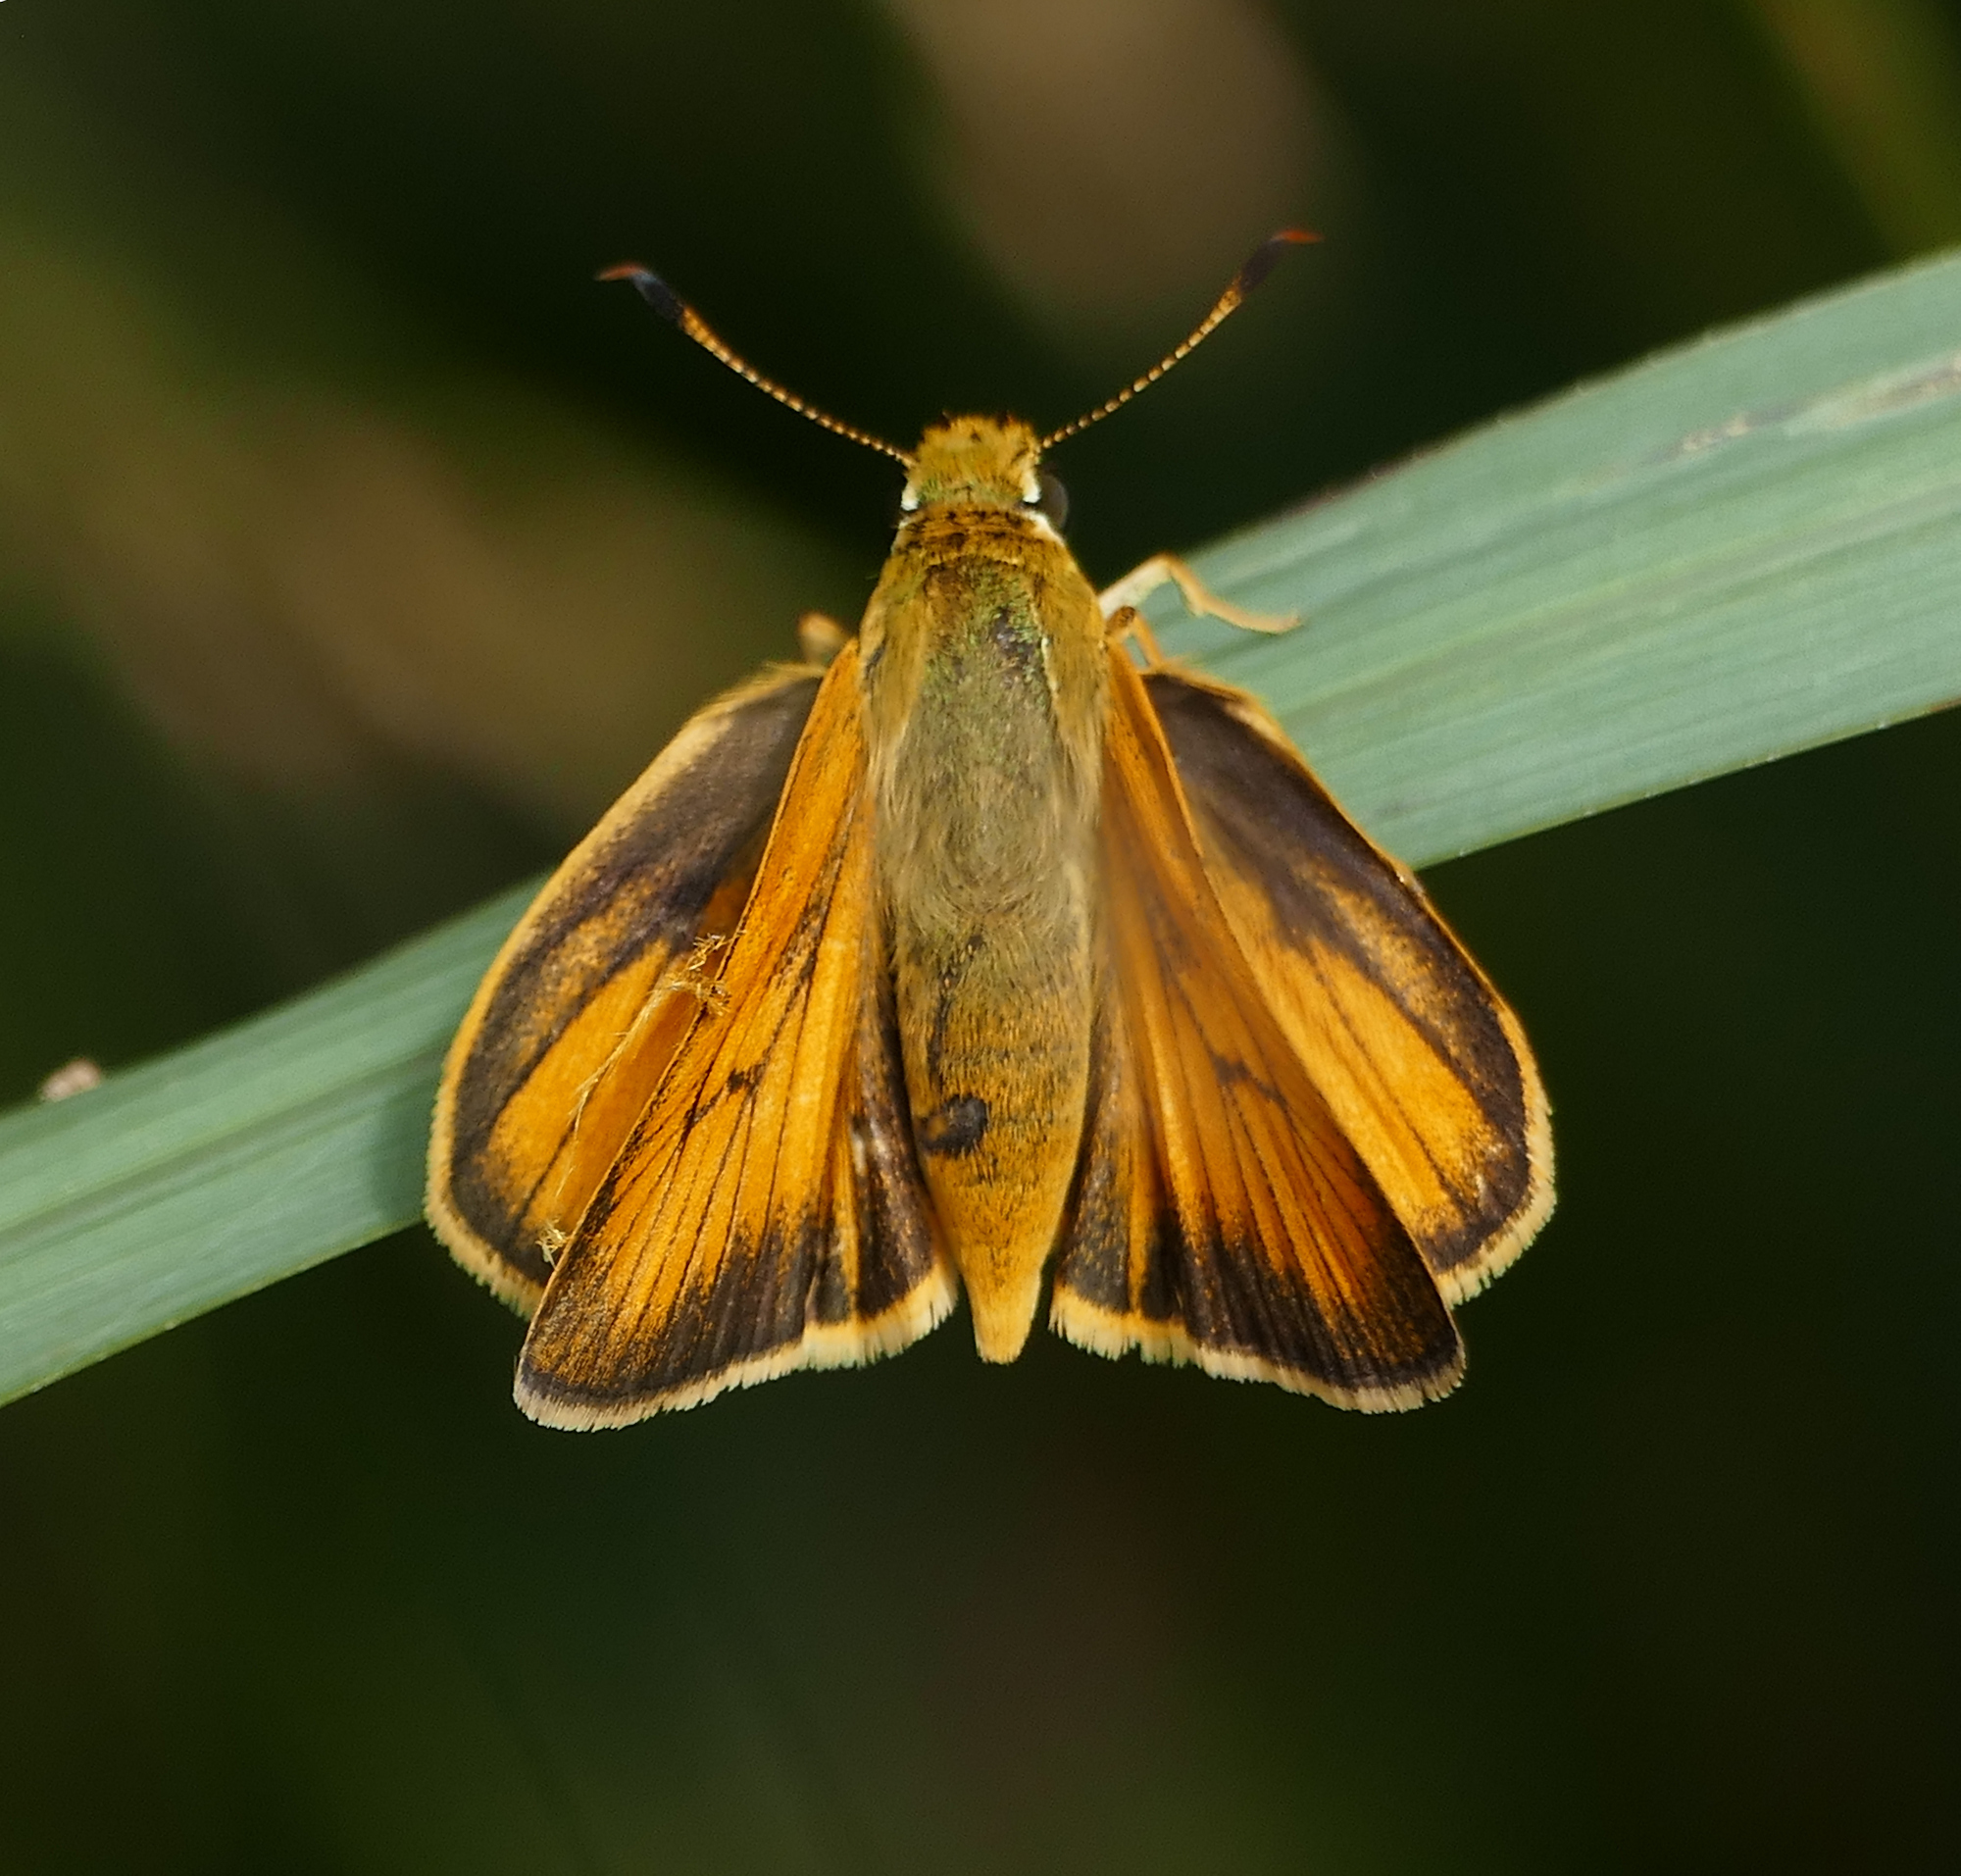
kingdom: Animalia
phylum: Arthropoda
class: Insecta
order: Lepidoptera
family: Hesperiidae
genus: Atrytone
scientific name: Atrytone delaware
